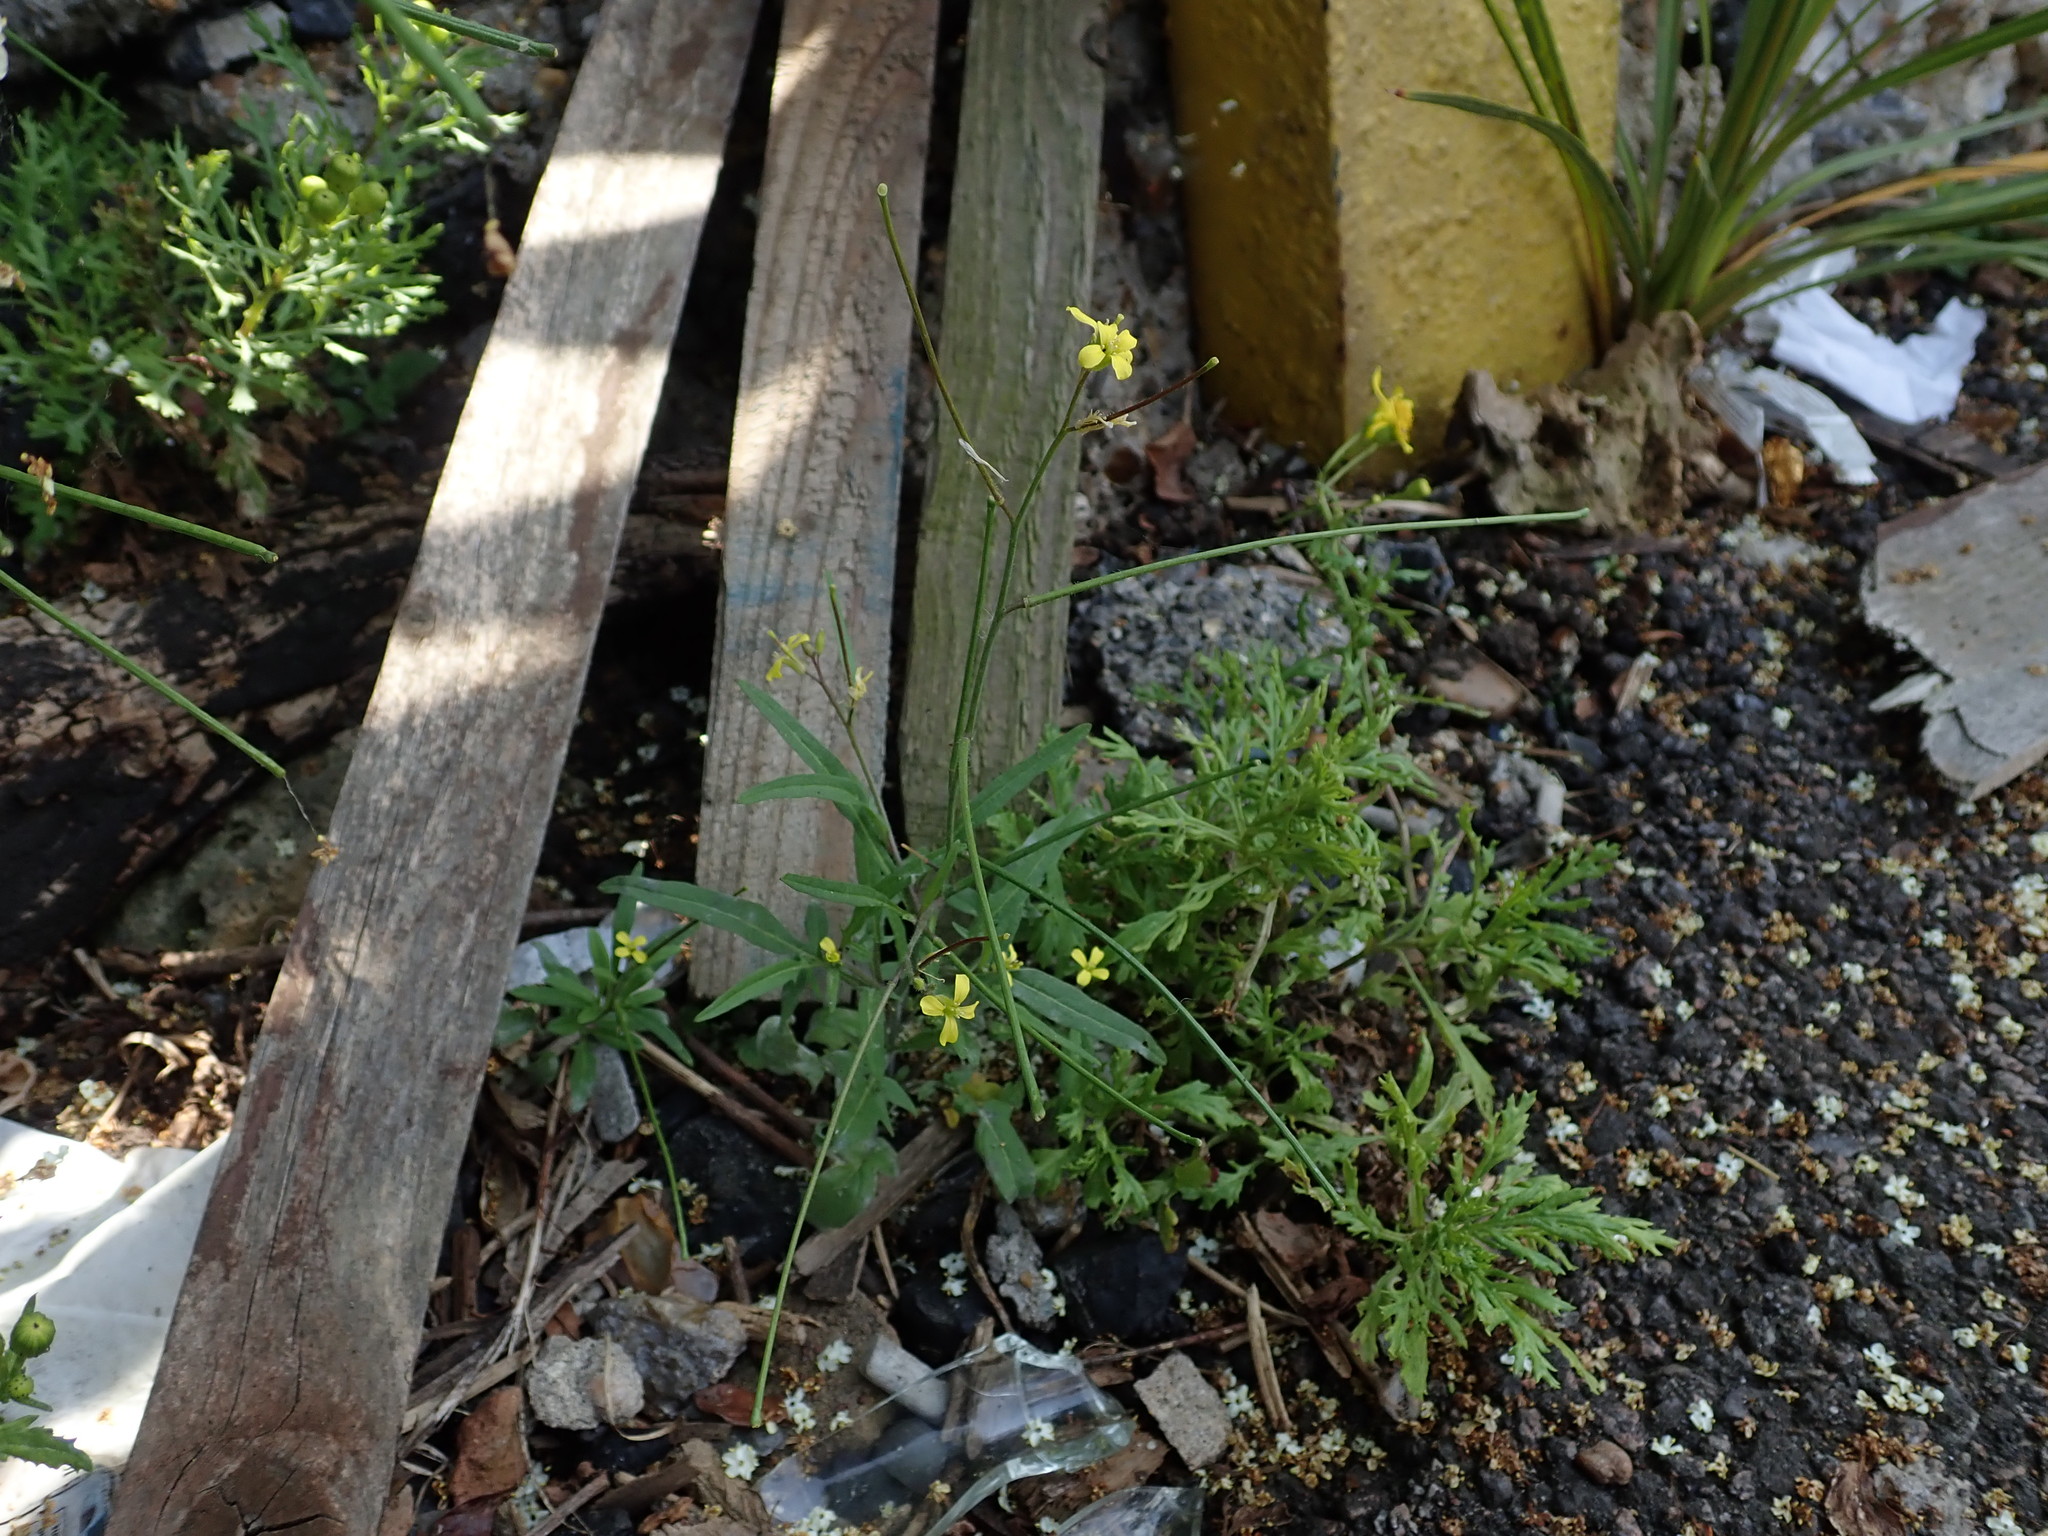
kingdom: Plantae
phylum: Tracheophyta
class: Magnoliopsida
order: Brassicales
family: Brassicaceae
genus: Sisymbrium
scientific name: Sisymbrium orientale
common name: Eastern rocket
